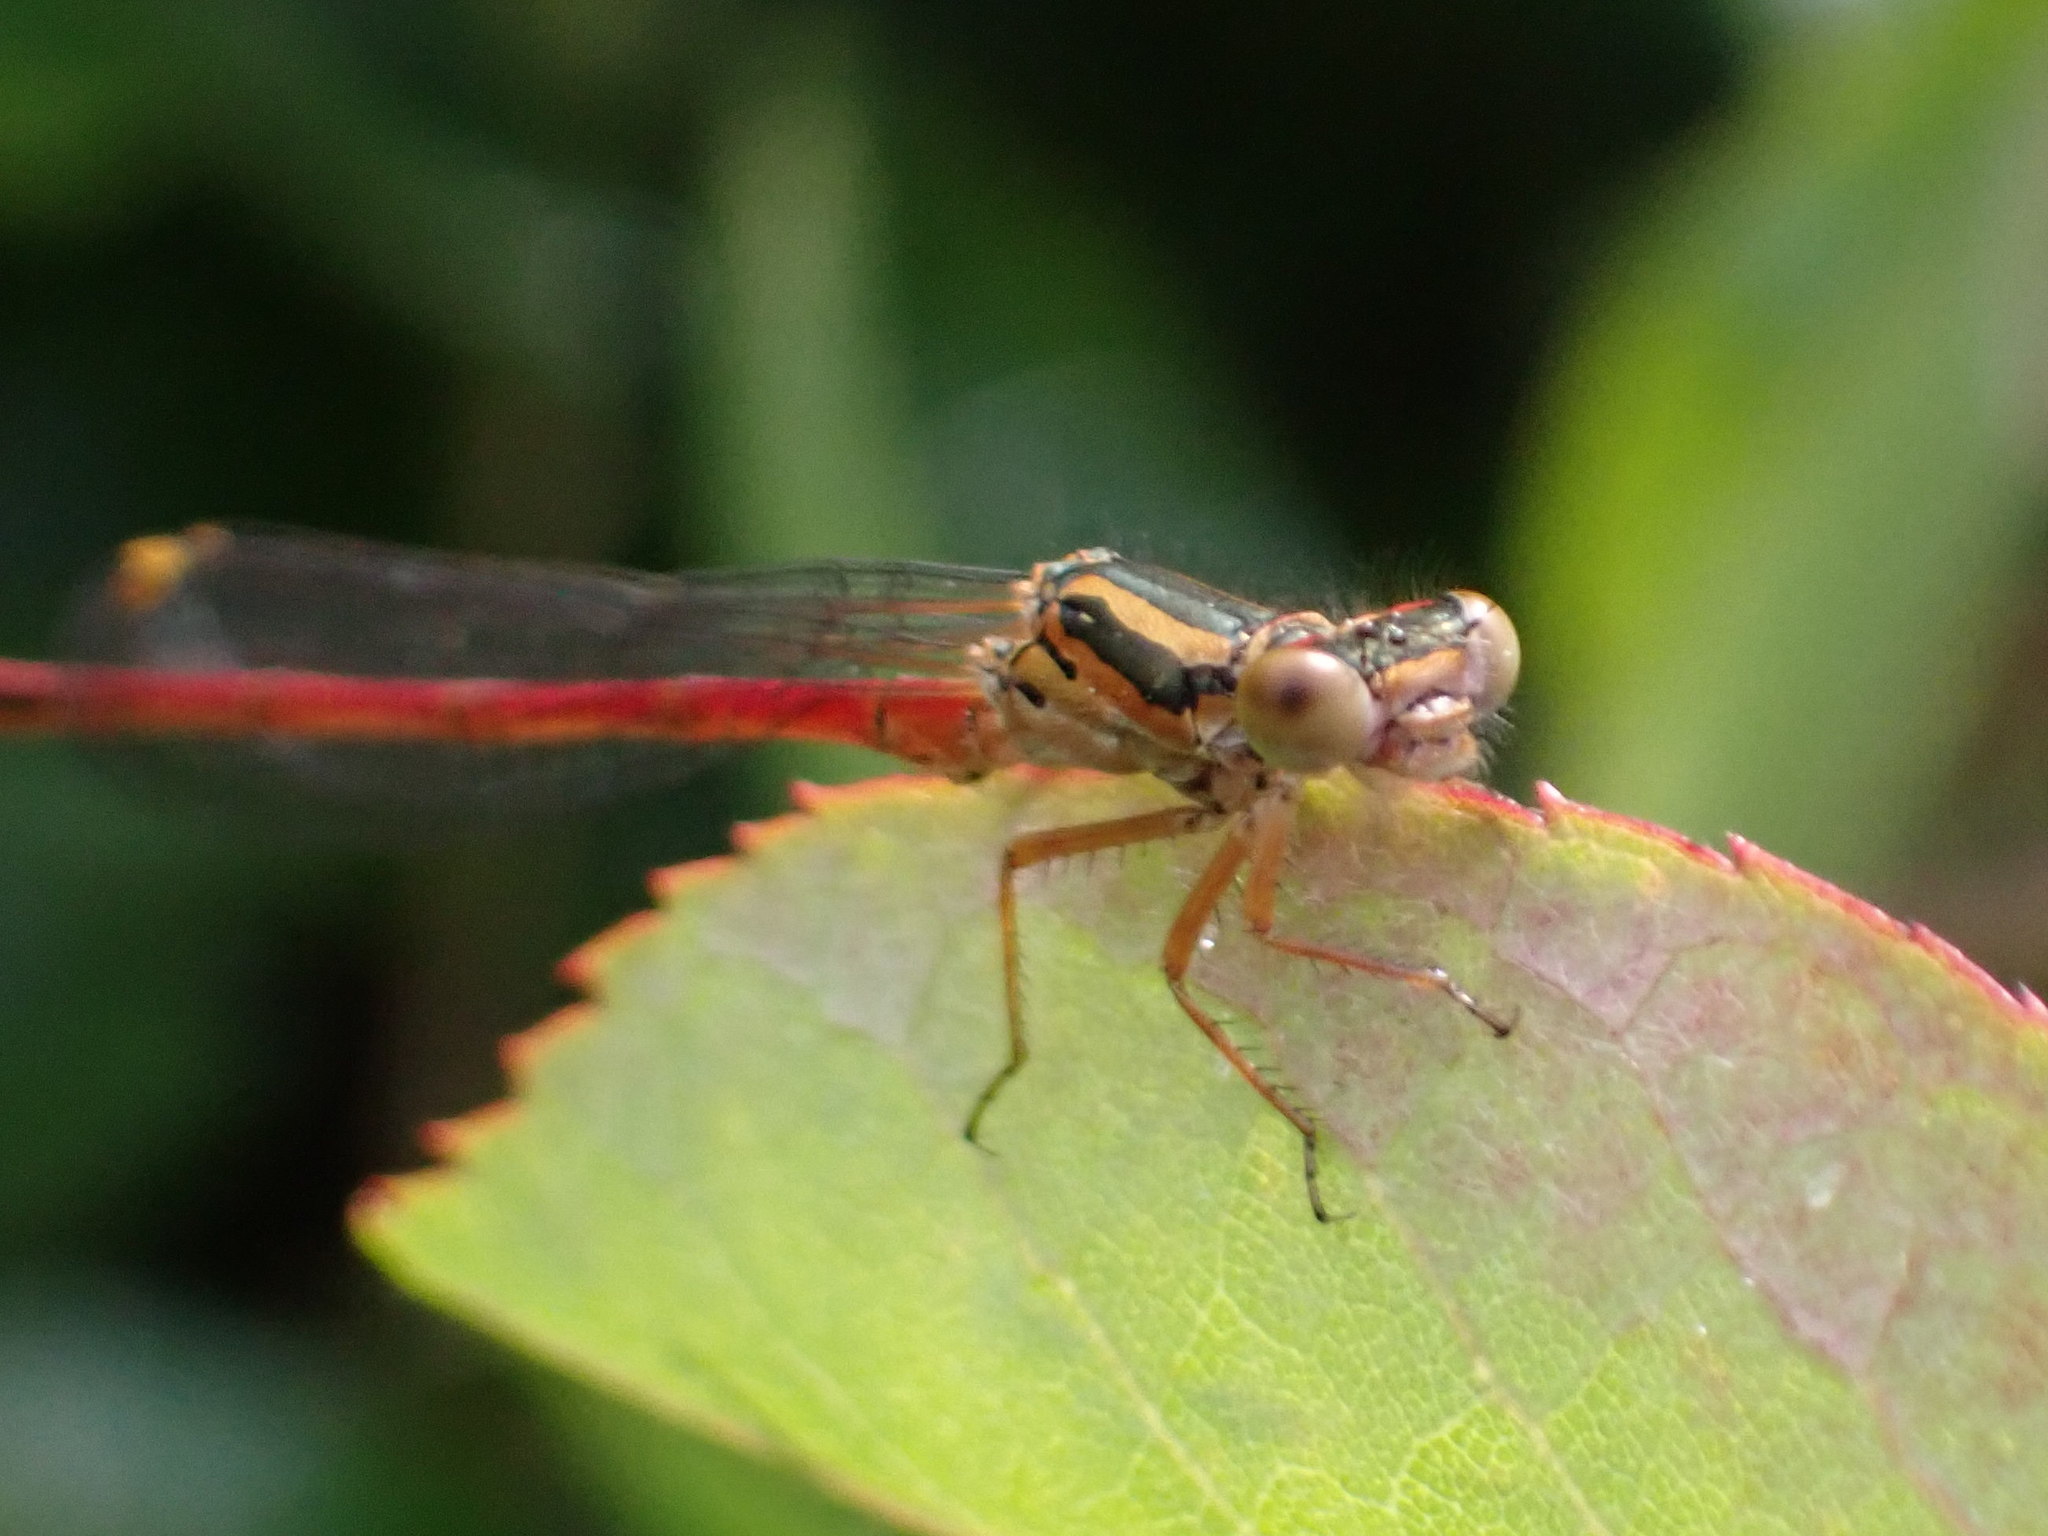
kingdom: Animalia
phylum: Arthropoda
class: Insecta
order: Odonata
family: Coenagrionidae
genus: Xanthocnemis
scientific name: Xanthocnemis zealandica
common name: Common redcoat damselfly
